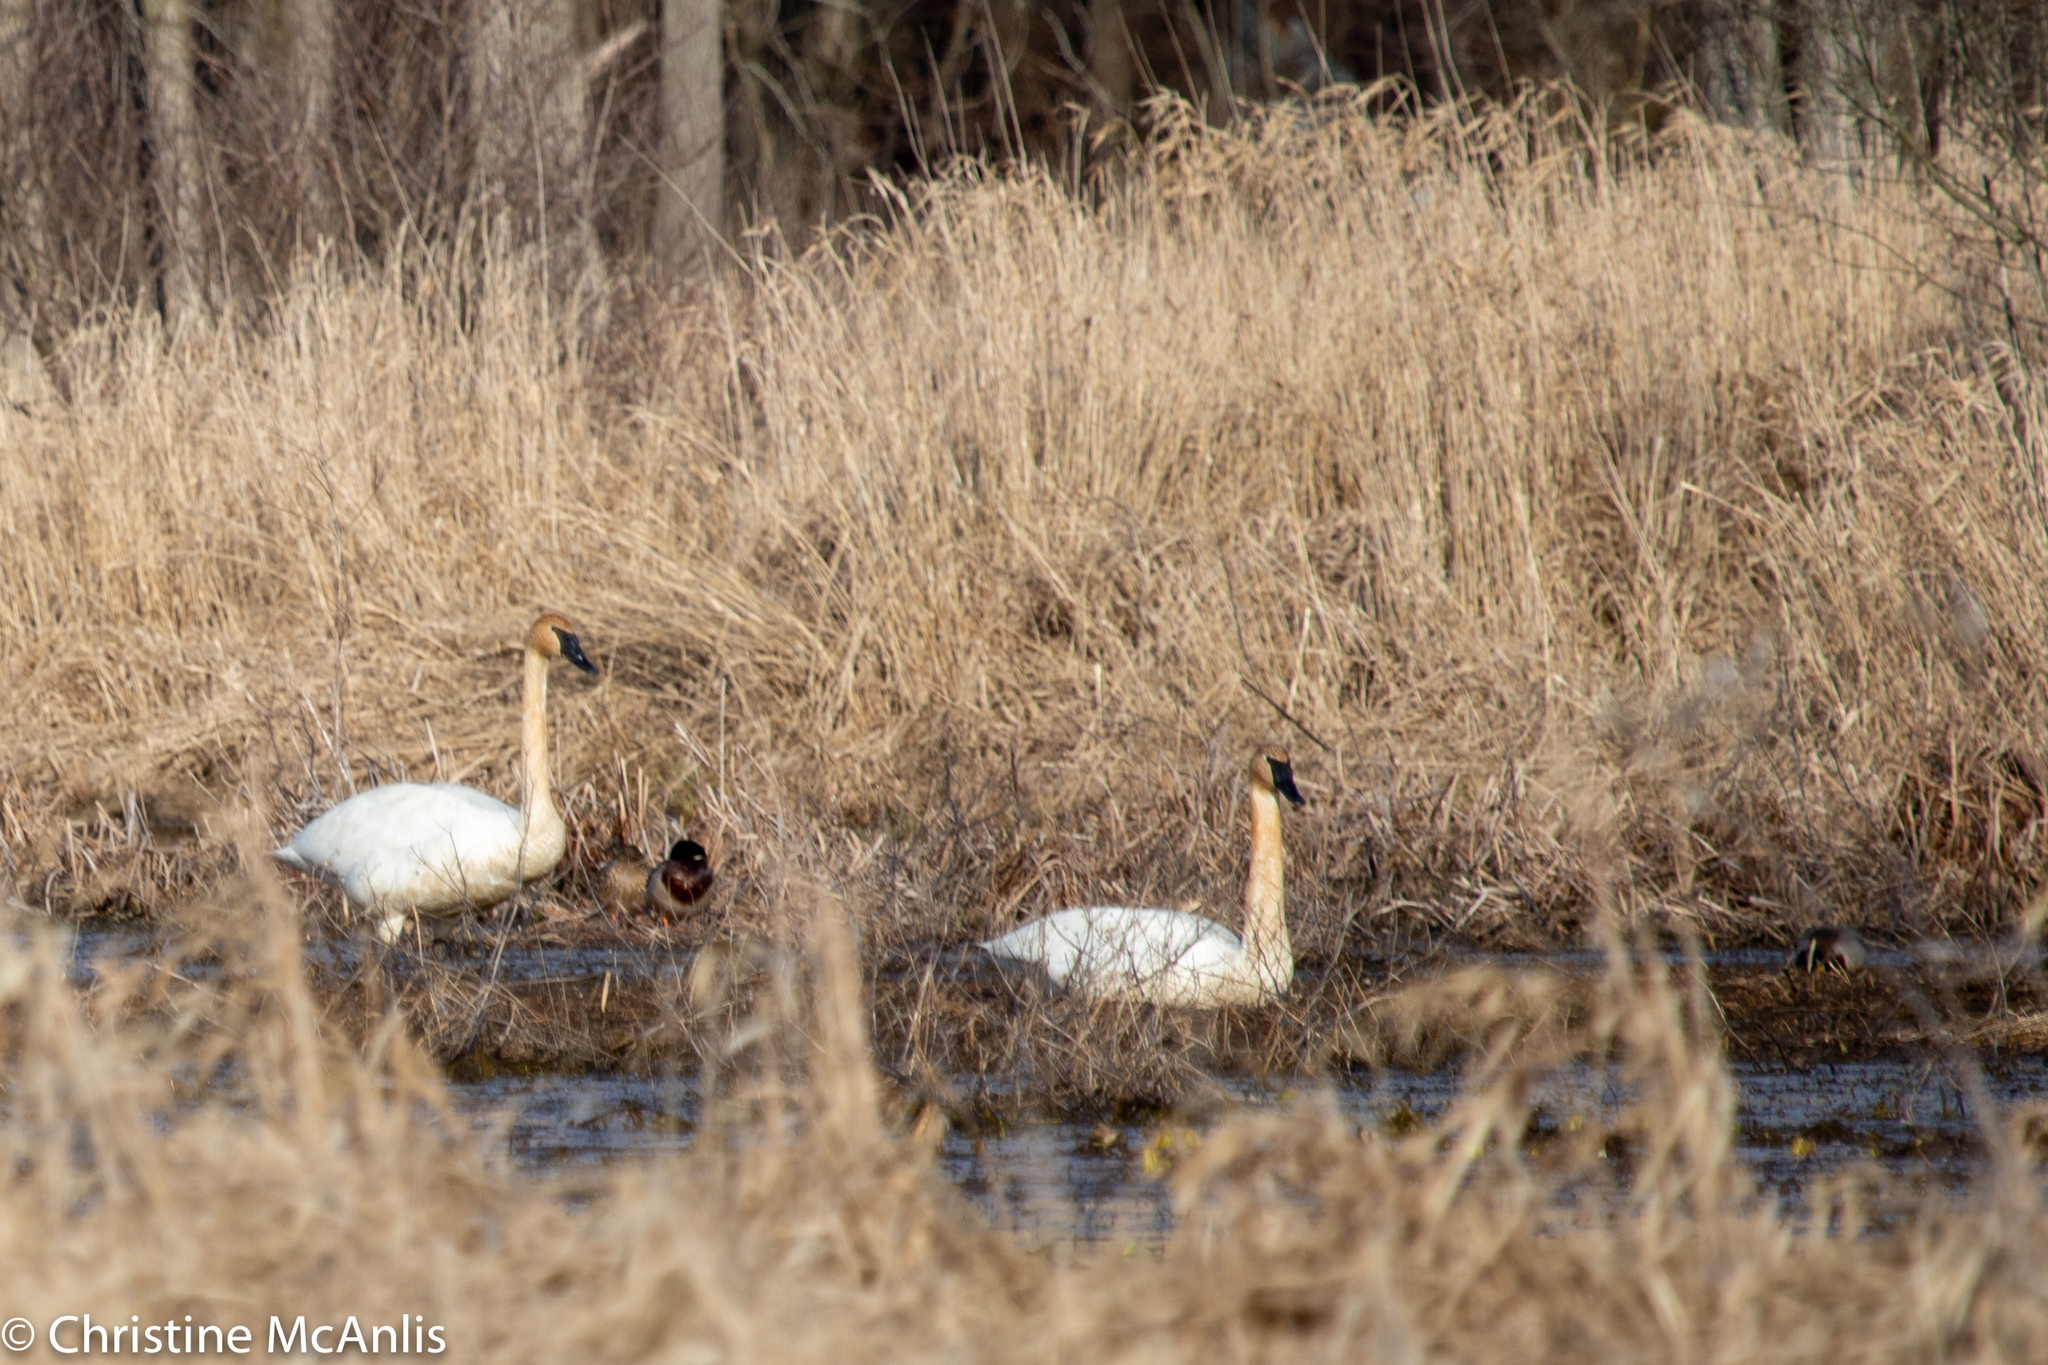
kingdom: Animalia
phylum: Chordata
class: Aves
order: Anseriformes
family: Anatidae
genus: Cygnus
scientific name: Cygnus buccinator
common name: Trumpeter swan
